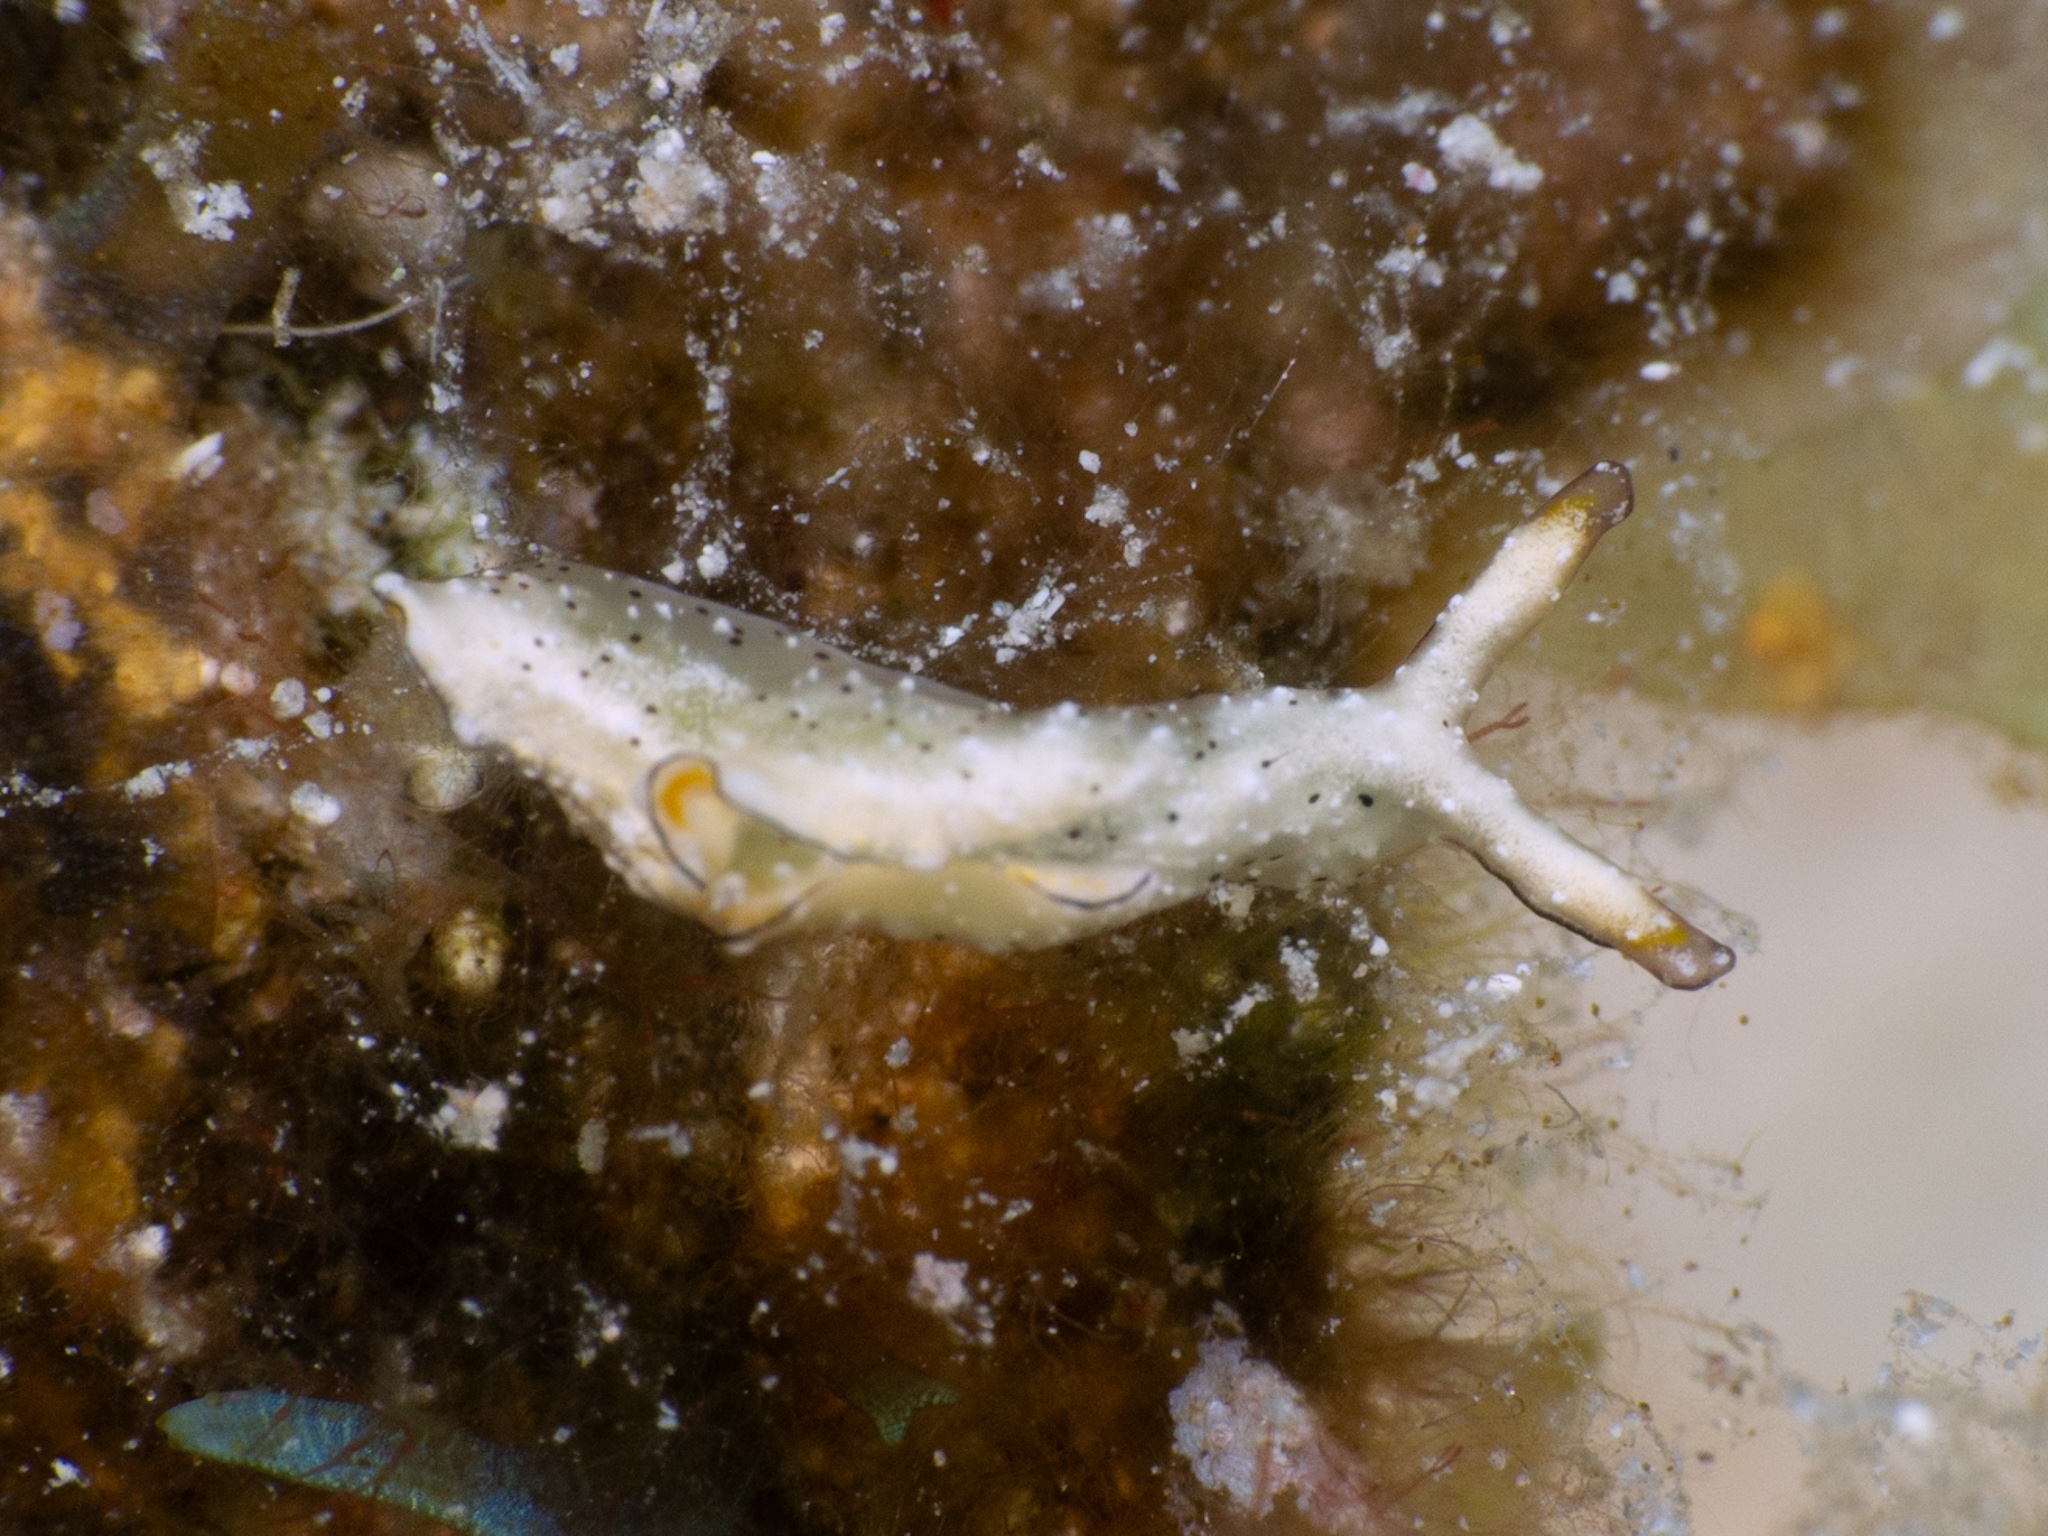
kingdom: Animalia
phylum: Mollusca
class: Gastropoda
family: Plakobranchidae
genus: Elysia
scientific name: Elysia ornata
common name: Ornate elysia
